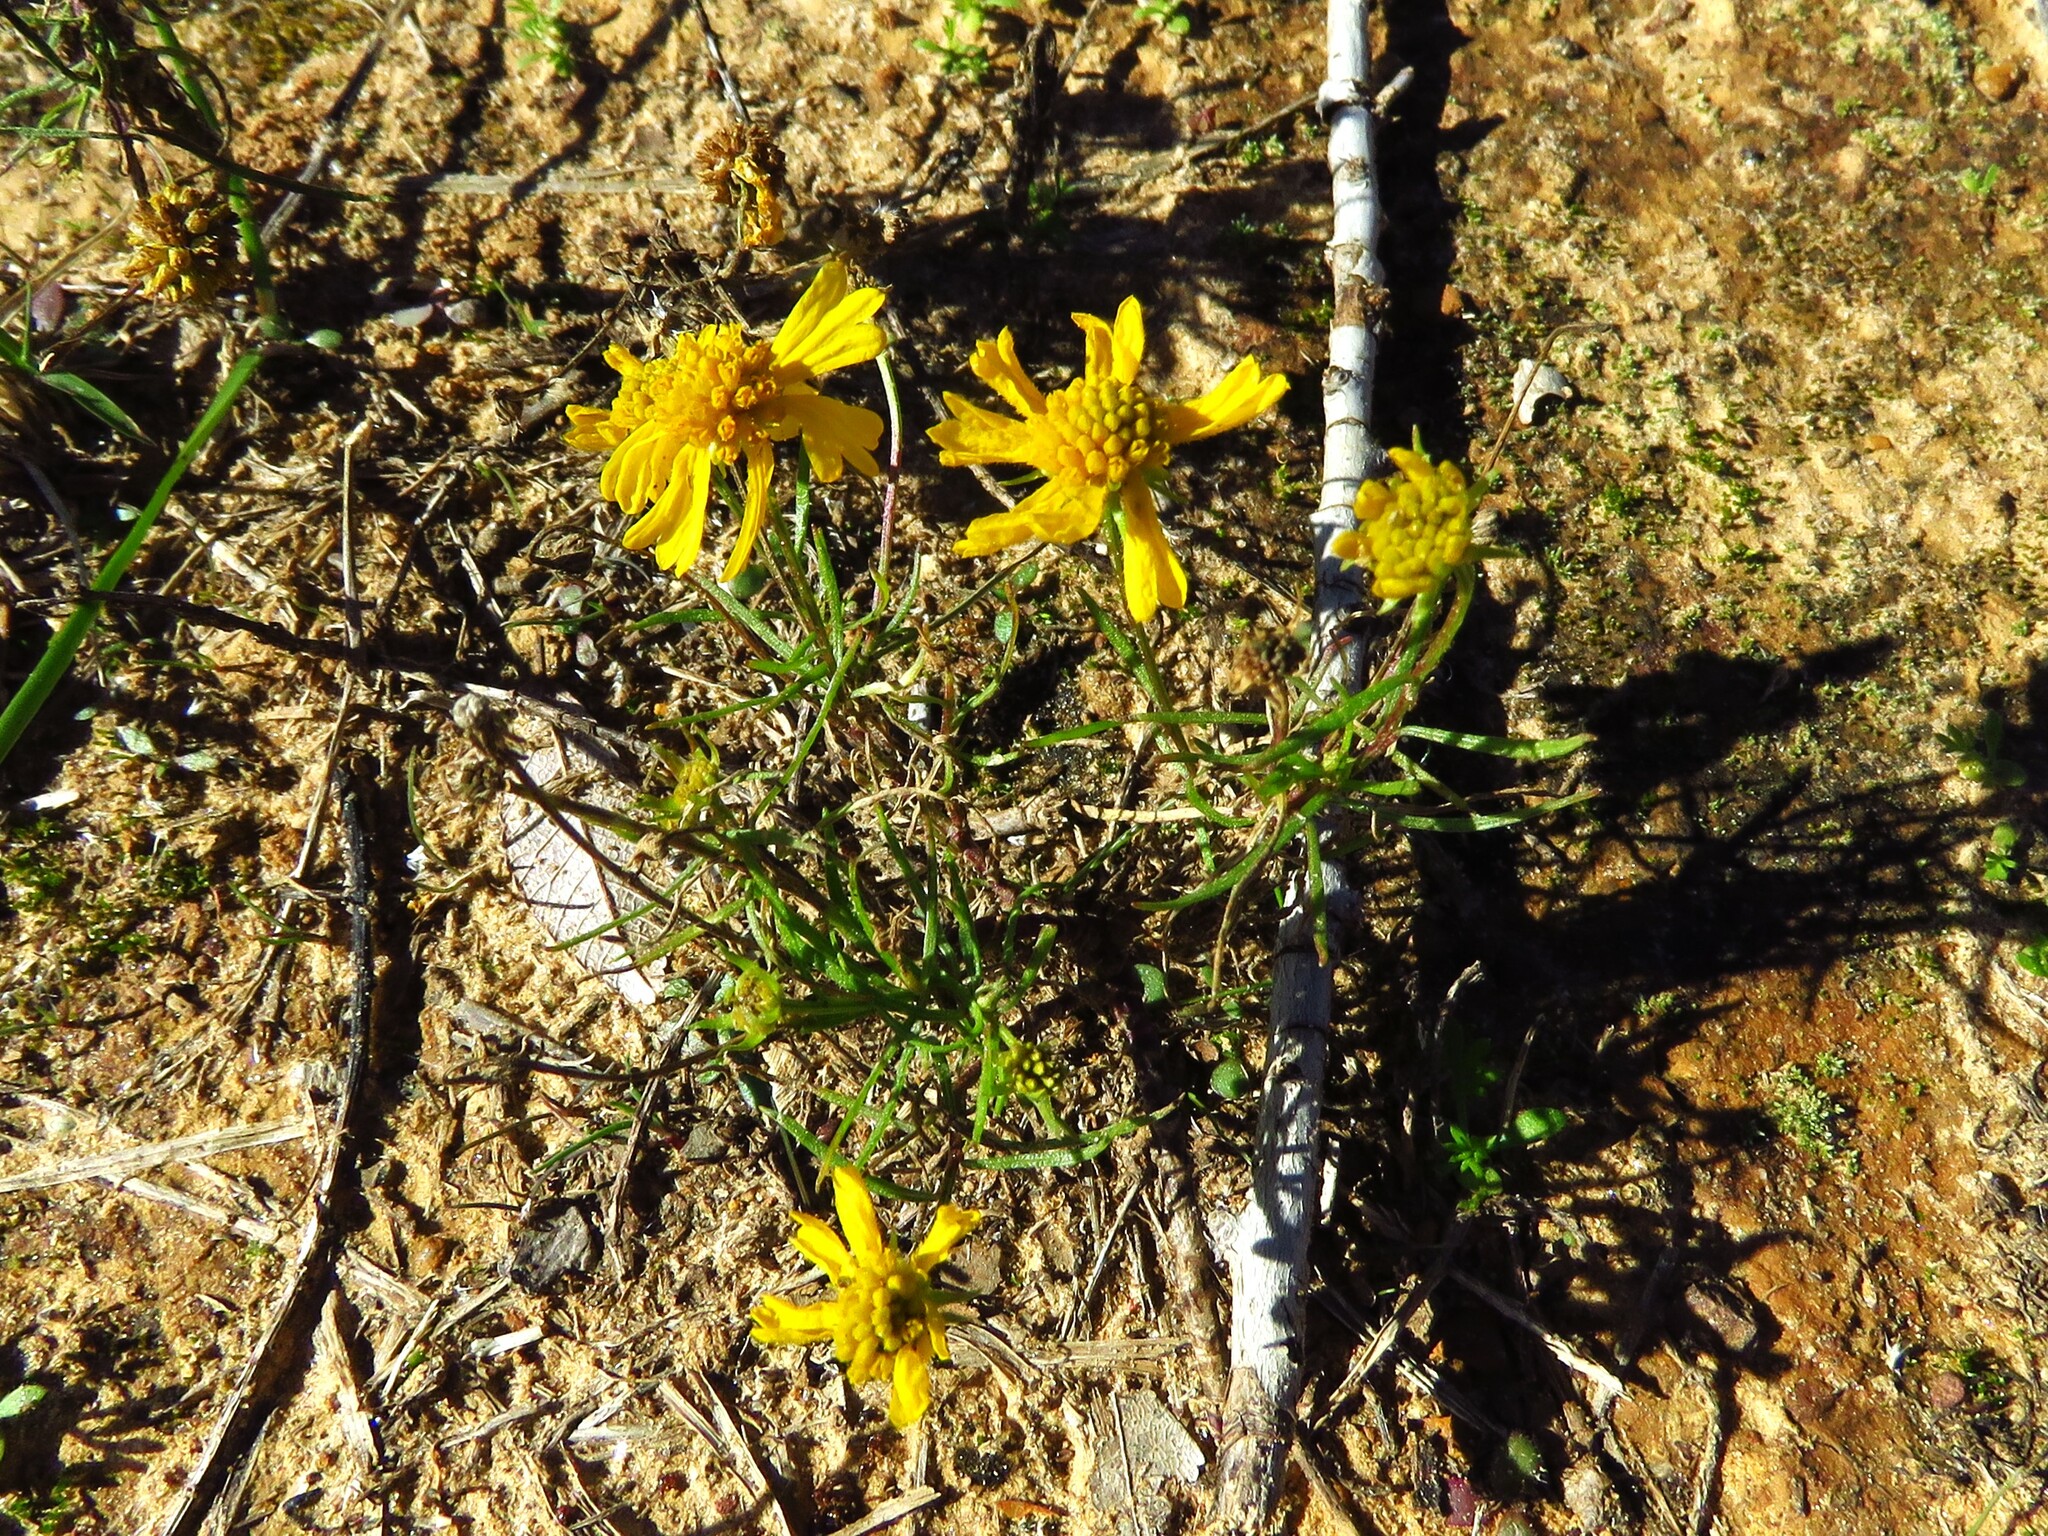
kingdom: Plantae
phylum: Tracheophyta
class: Magnoliopsida
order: Asterales
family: Asteraceae
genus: Helenium
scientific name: Helenium amarum
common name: Bitter sneezeweed
